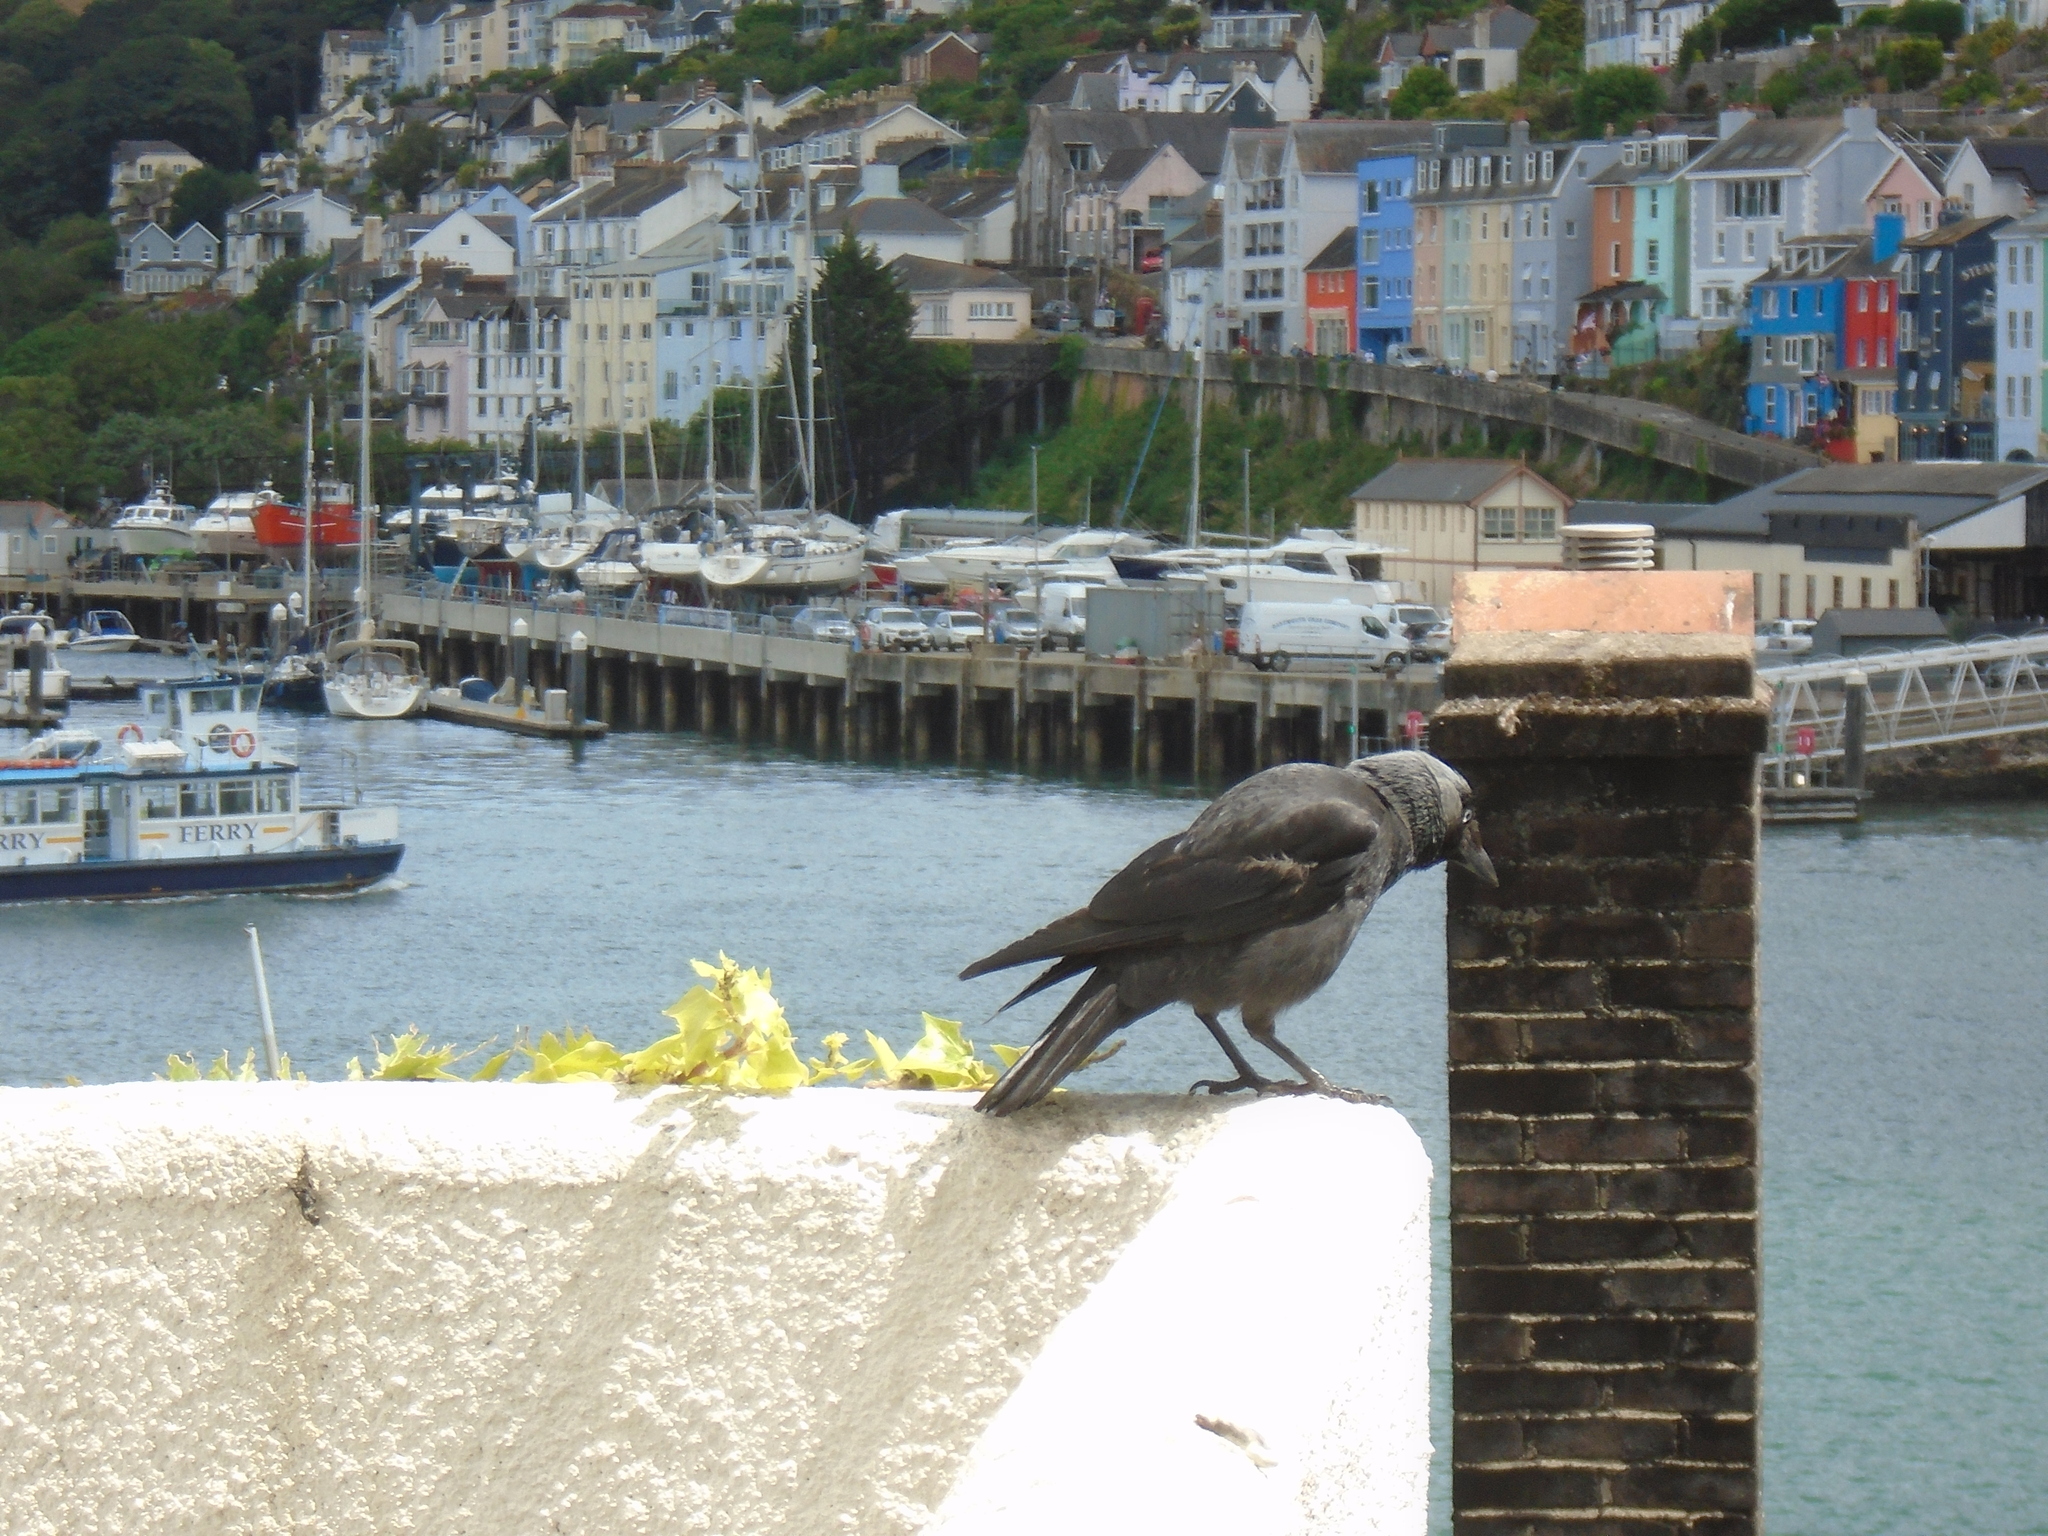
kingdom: Animalia
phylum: Chordata
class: Aves
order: Passeriformes
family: Corvidae
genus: Coloeus
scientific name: Coloeus monedula
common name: Western jackdaw
